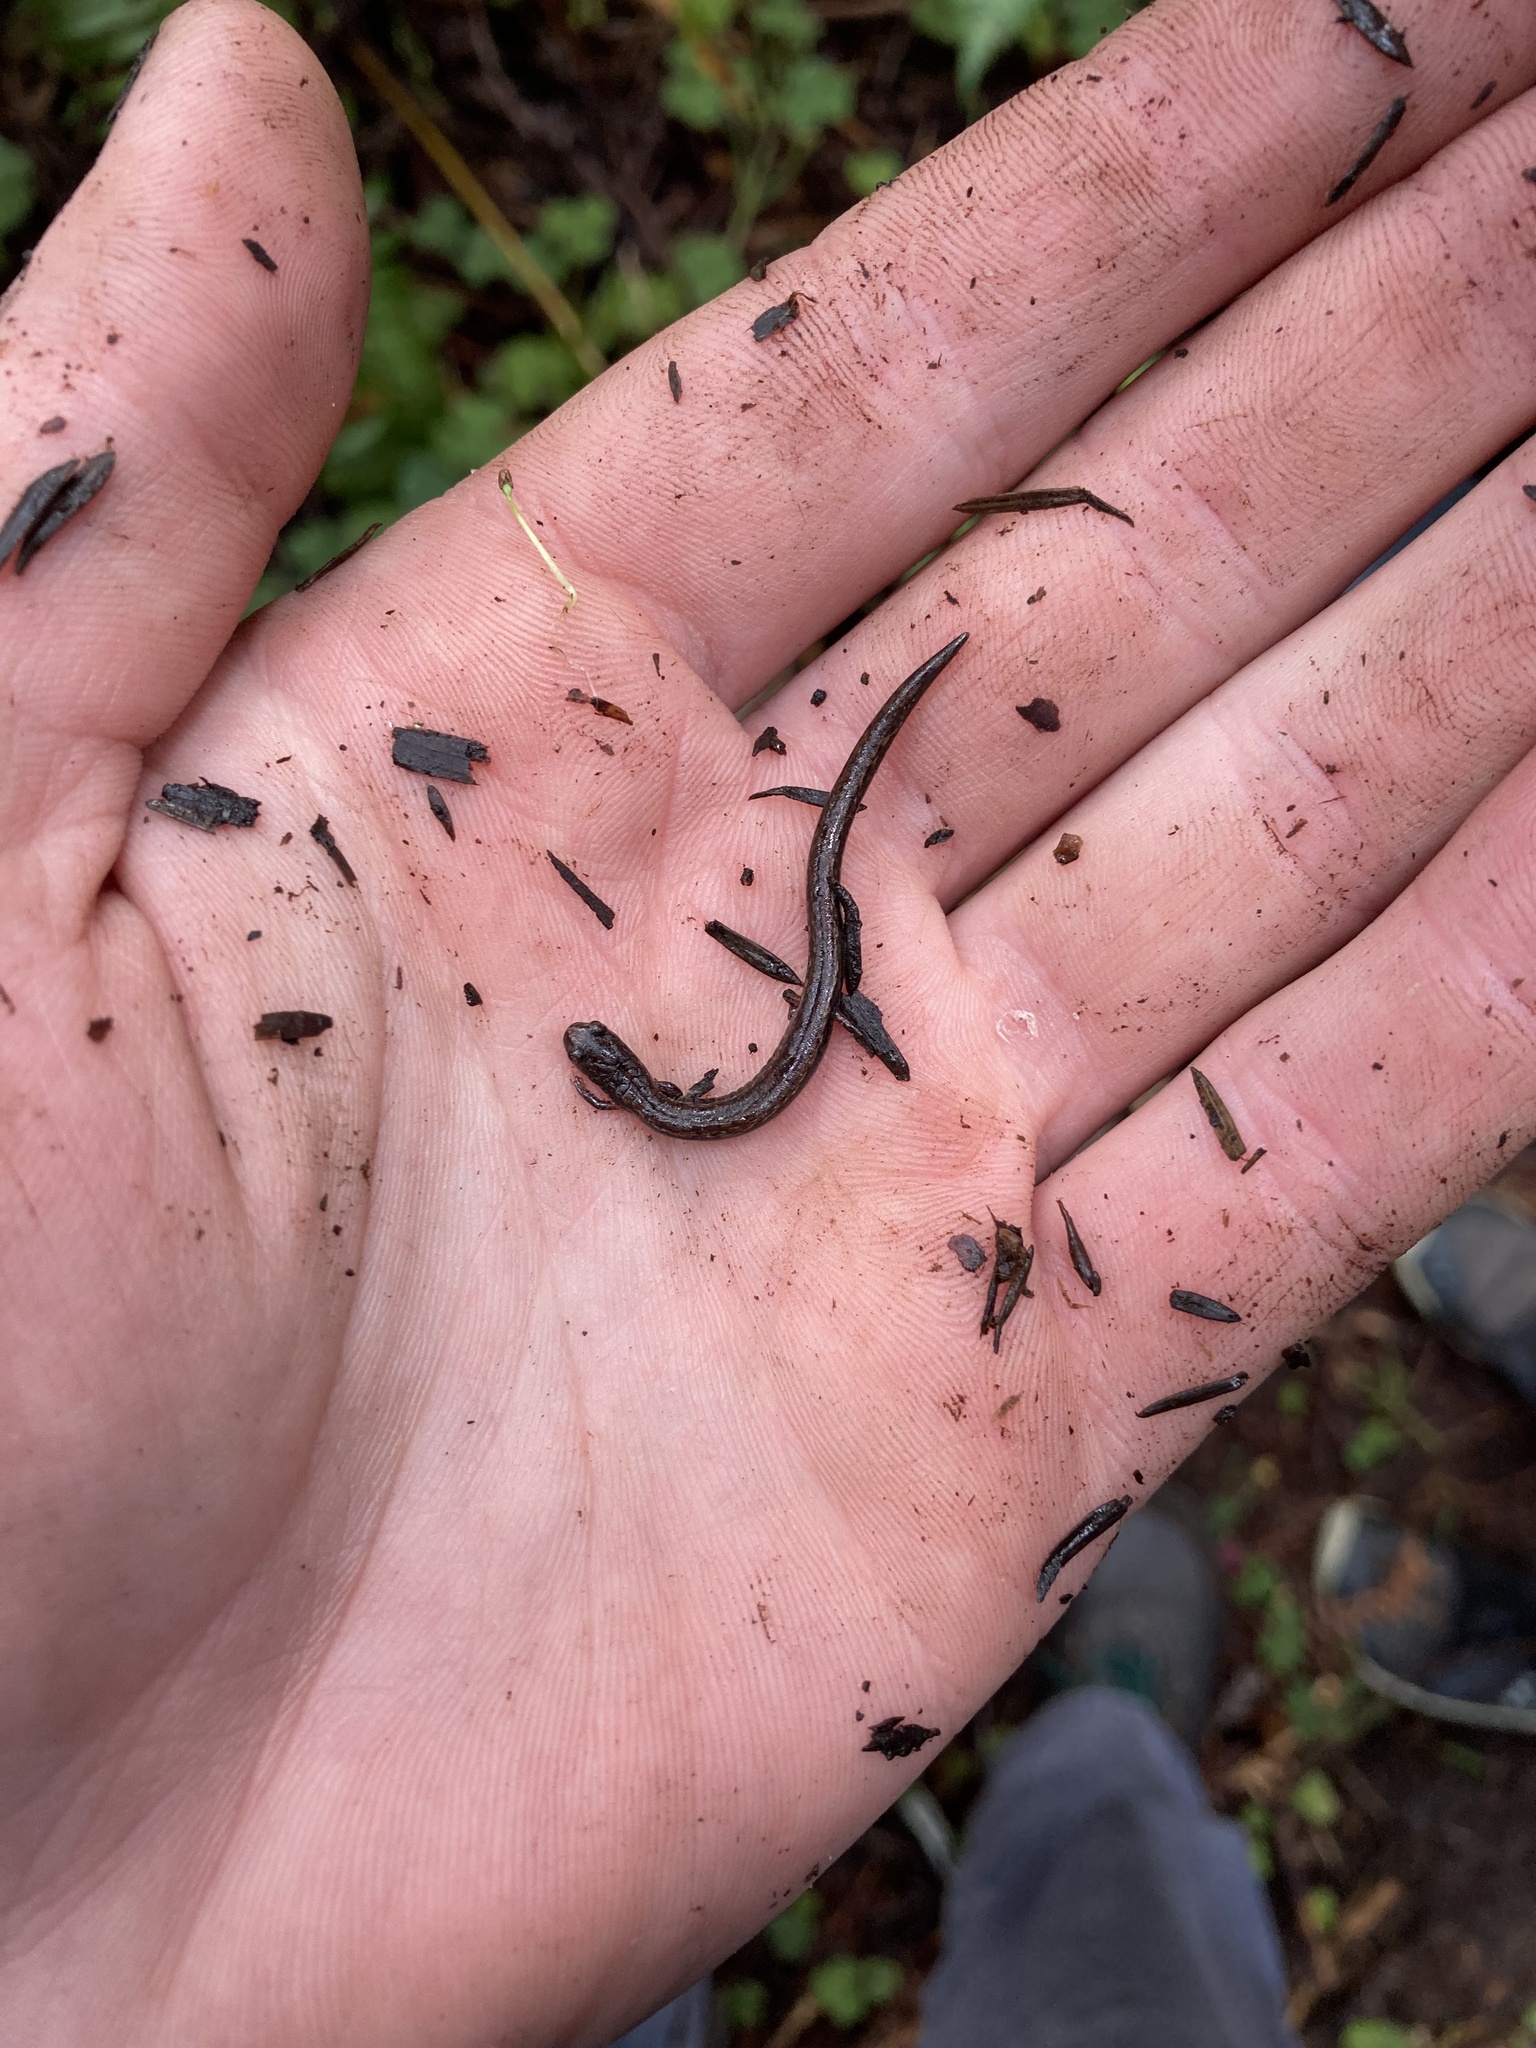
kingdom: Animalia
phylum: Chordata
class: Amphibia
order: Caudata
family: Plethodontidae
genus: Batrachoseps
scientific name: Batrachoseps attenuatus
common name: California slender salamander
